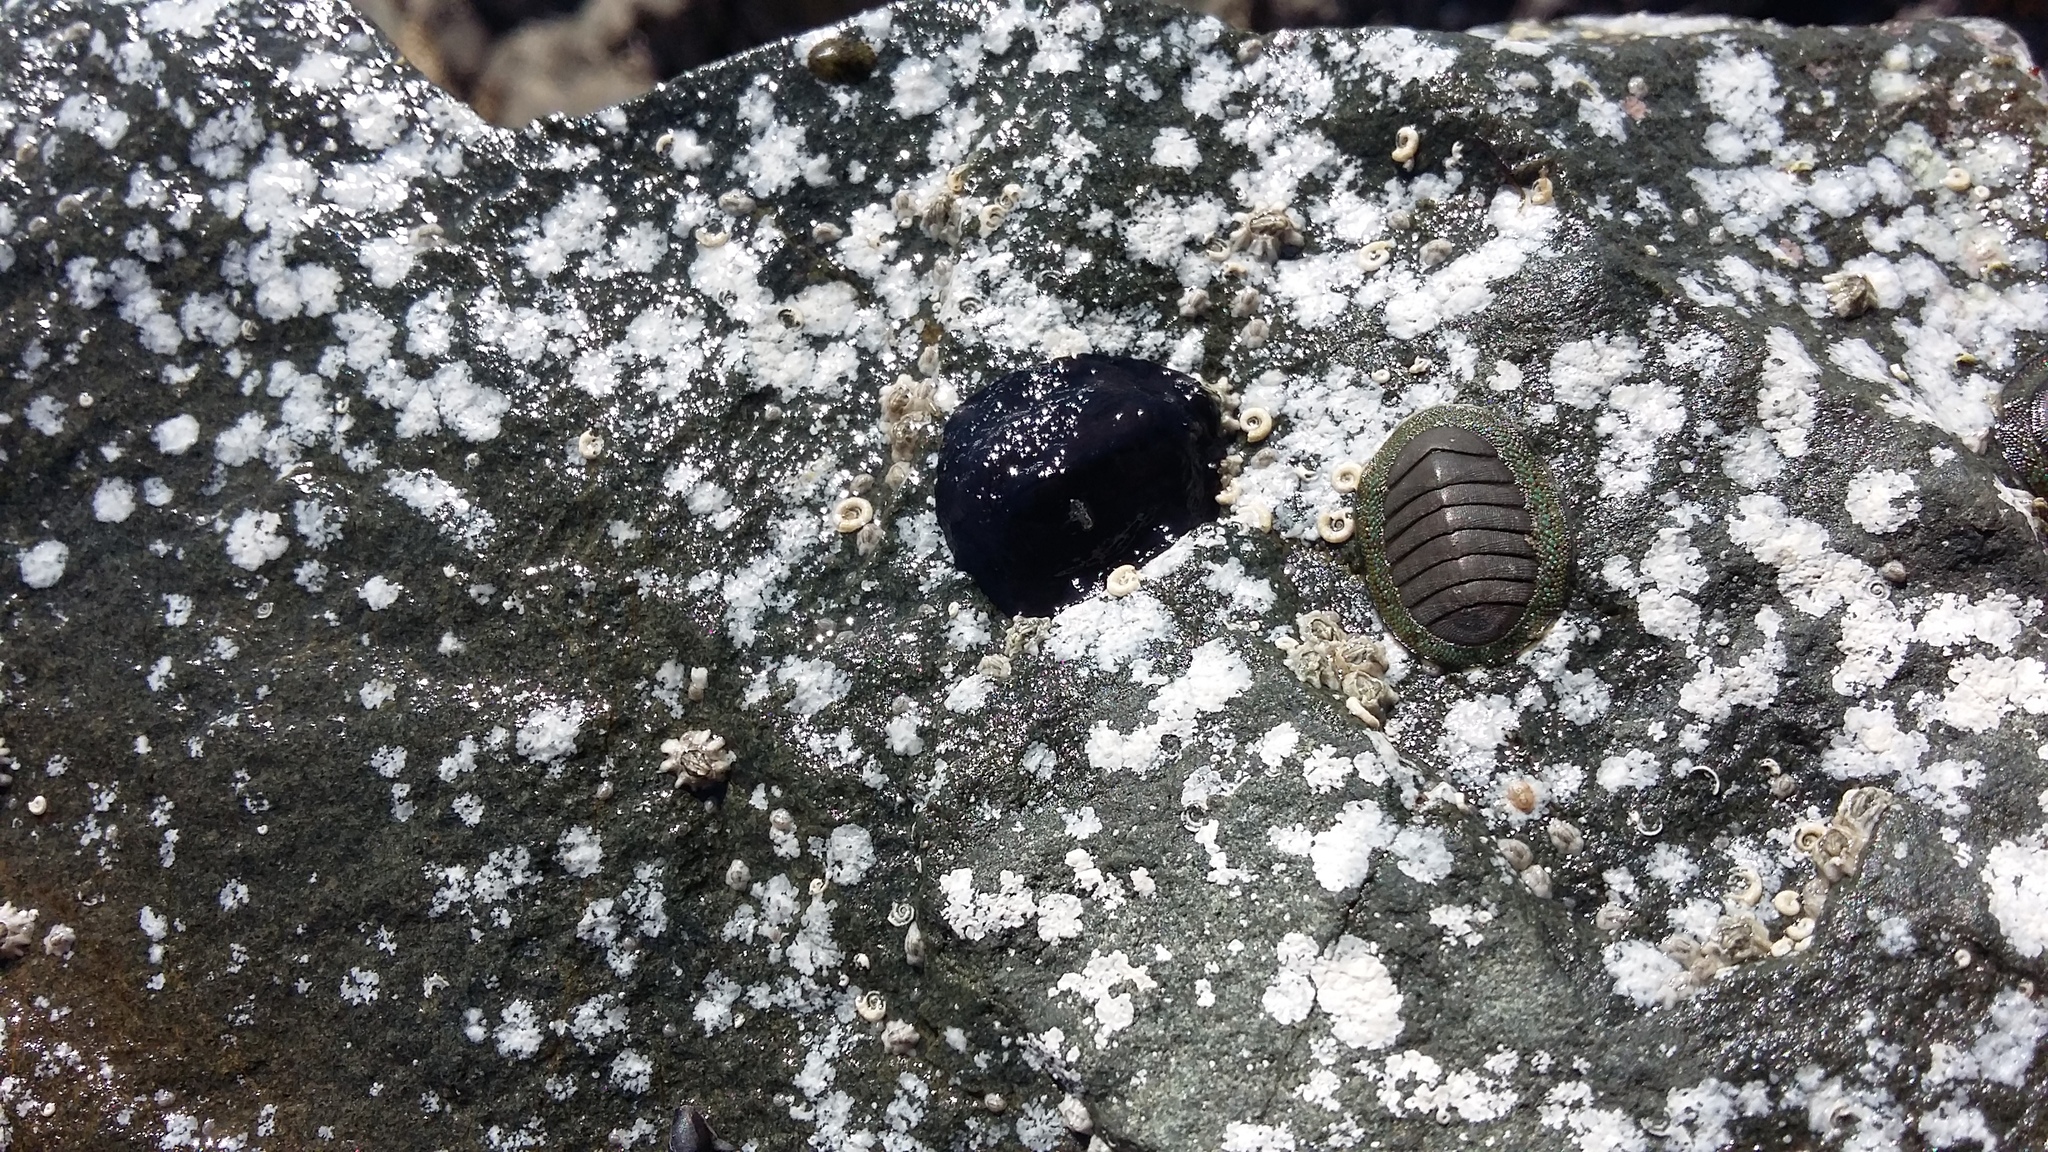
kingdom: Animalia
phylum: Mollusca
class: Gastropoda
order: Lepetellida
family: Fissurellidae
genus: Scutus
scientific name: Scutus breviculus
